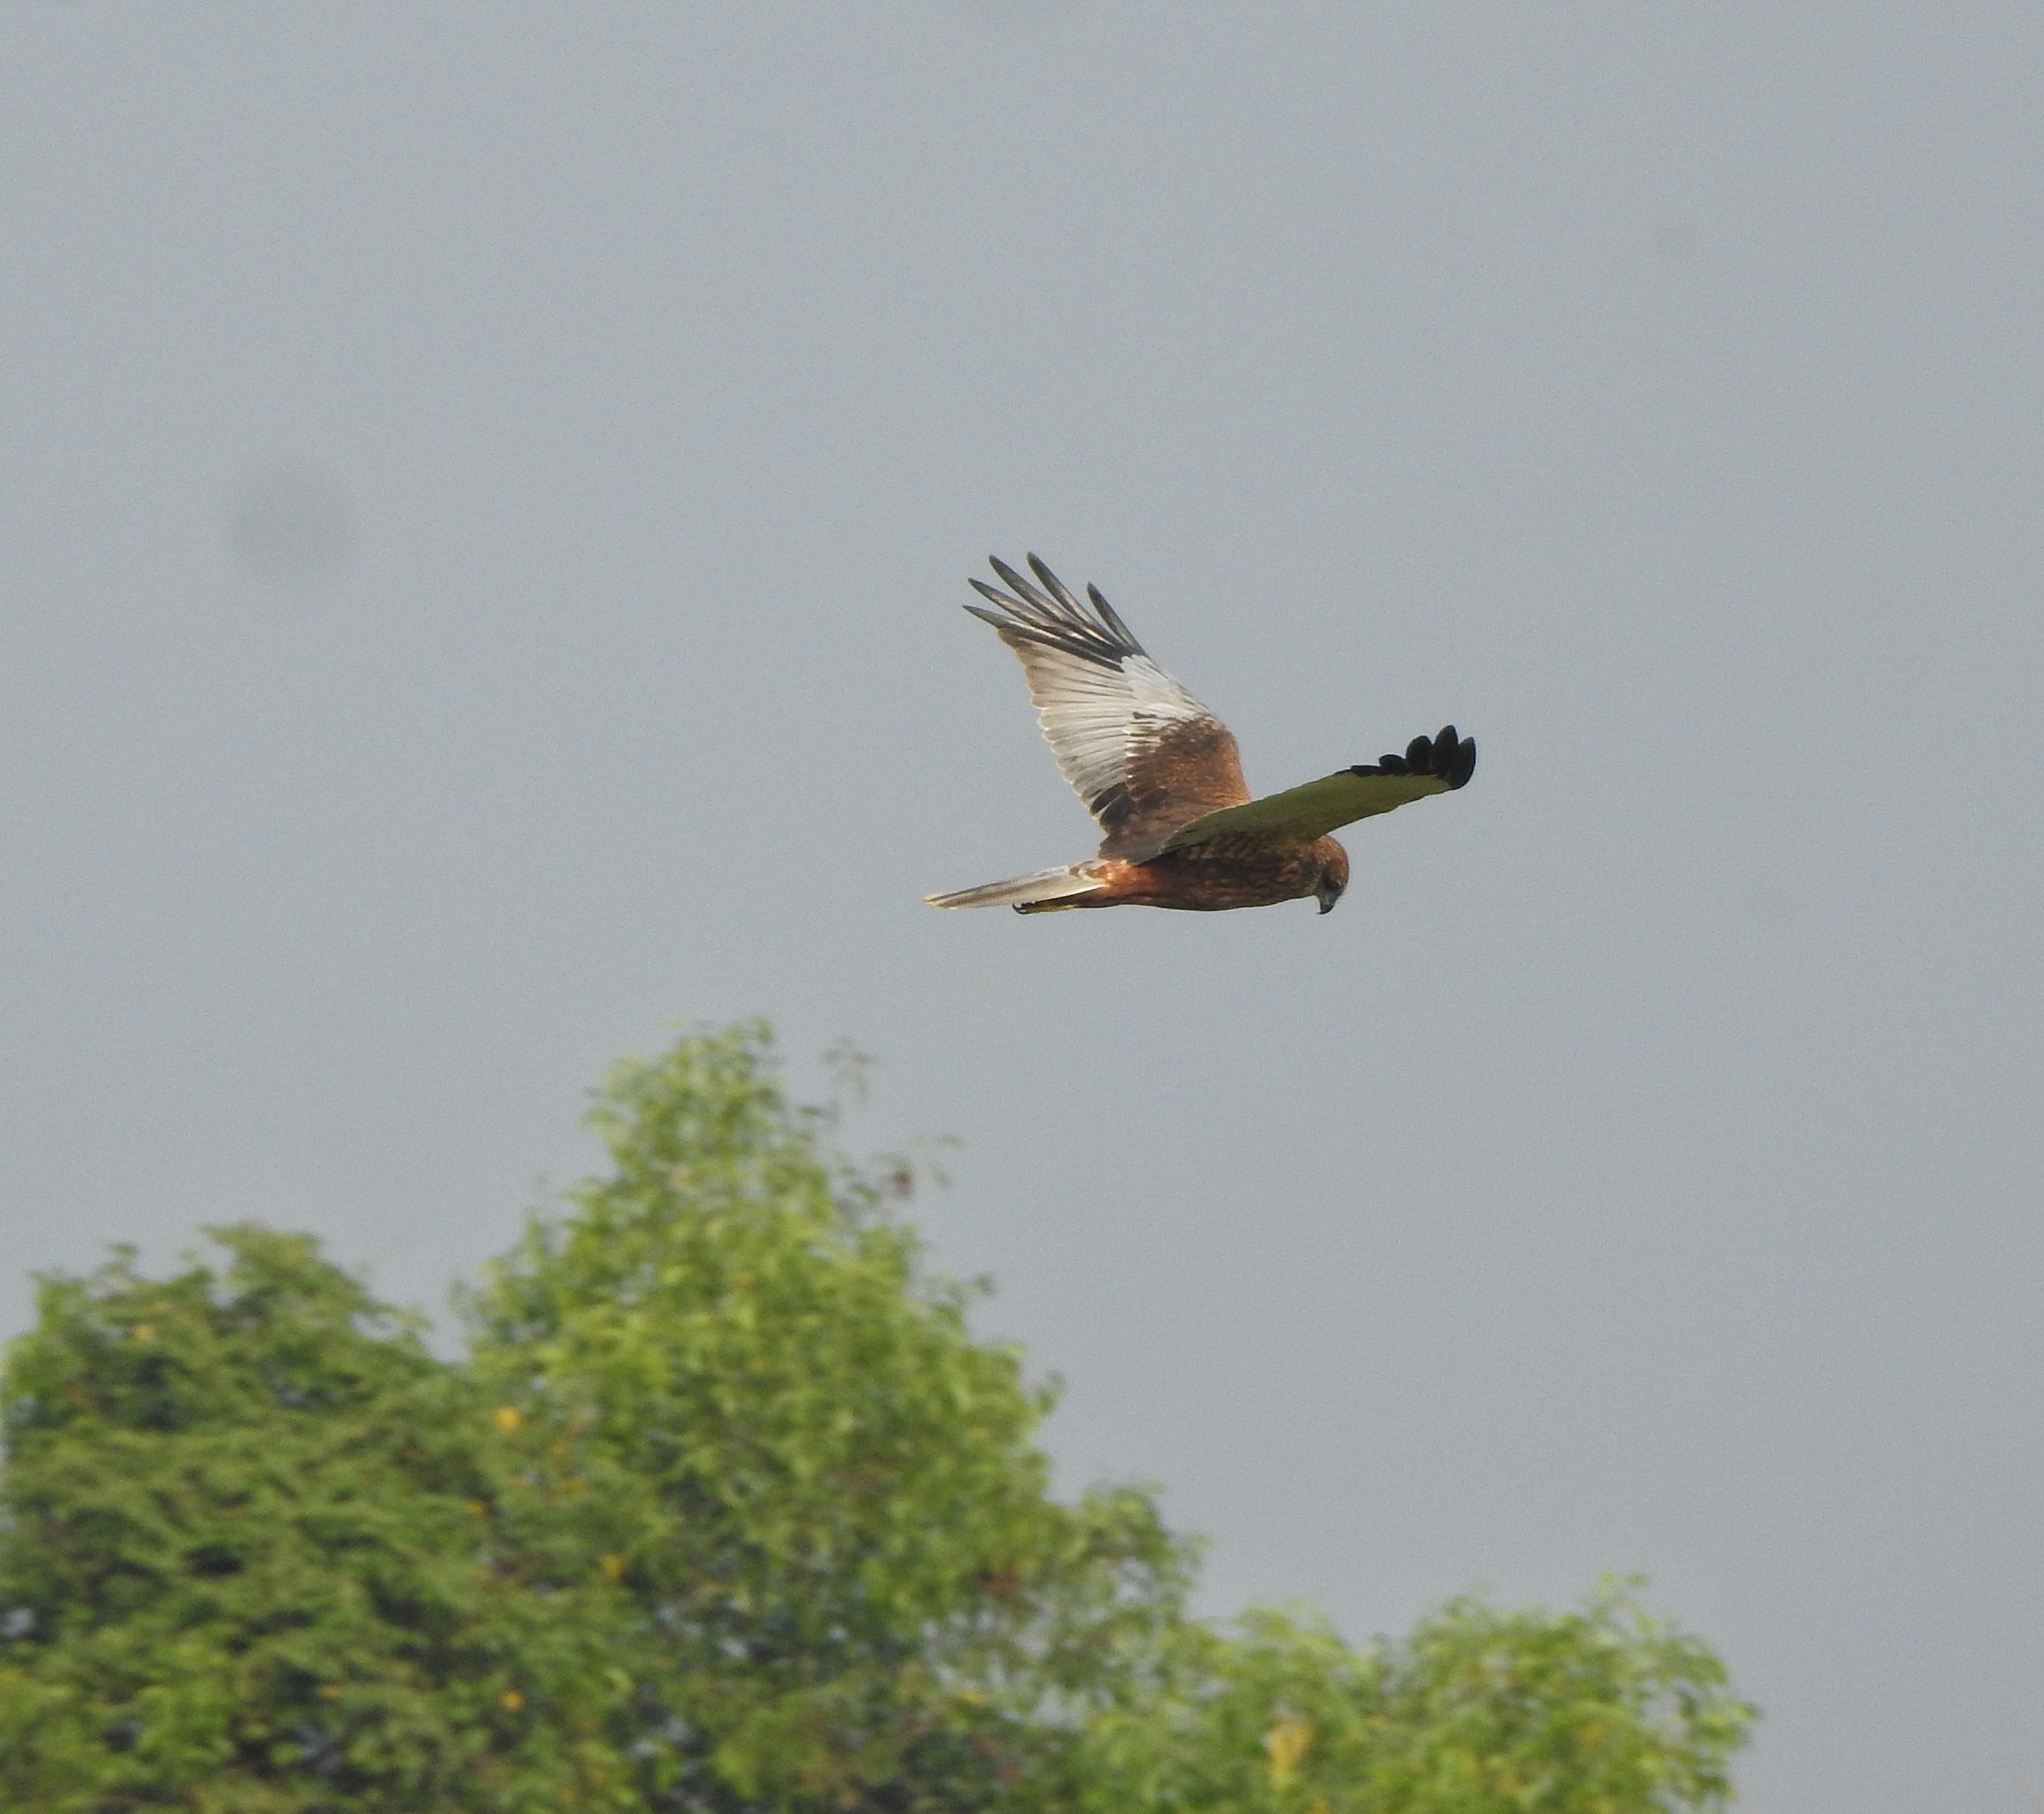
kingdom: Animalia
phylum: Chordata
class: Aves
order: Accipitriformes
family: Accipitridae
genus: Circus
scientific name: Circus aeruginosus
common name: Western marsh harrier
